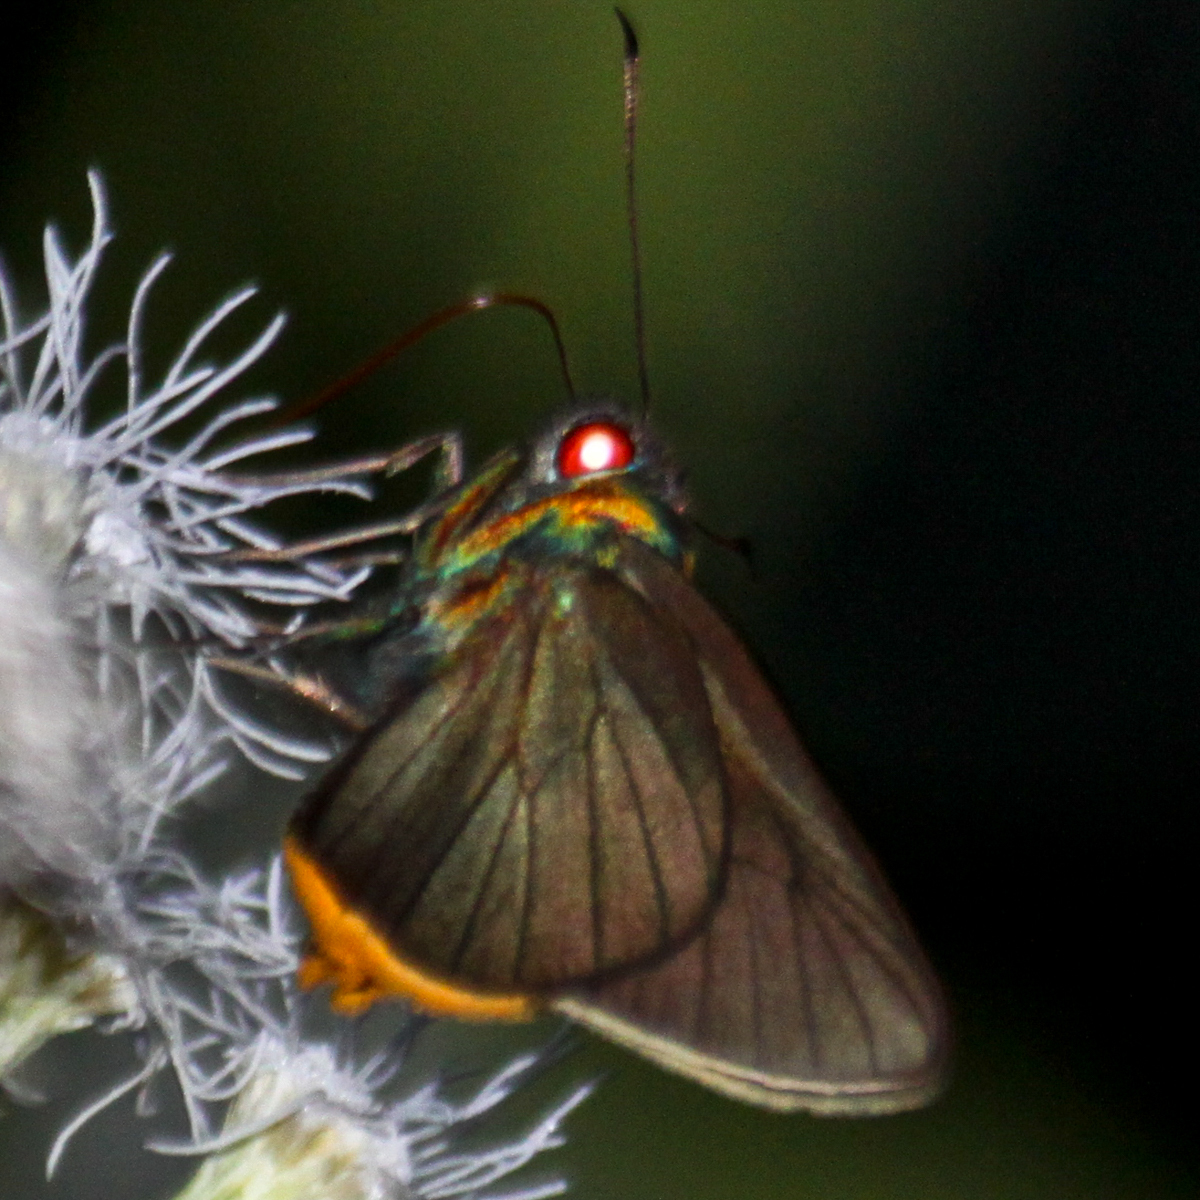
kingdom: Animalia
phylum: Arthropoda
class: Insecta
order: Lepidoptera
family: Hesperiidae
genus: Matapa
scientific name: Matapa sasivarna
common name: Black-veined redeye
